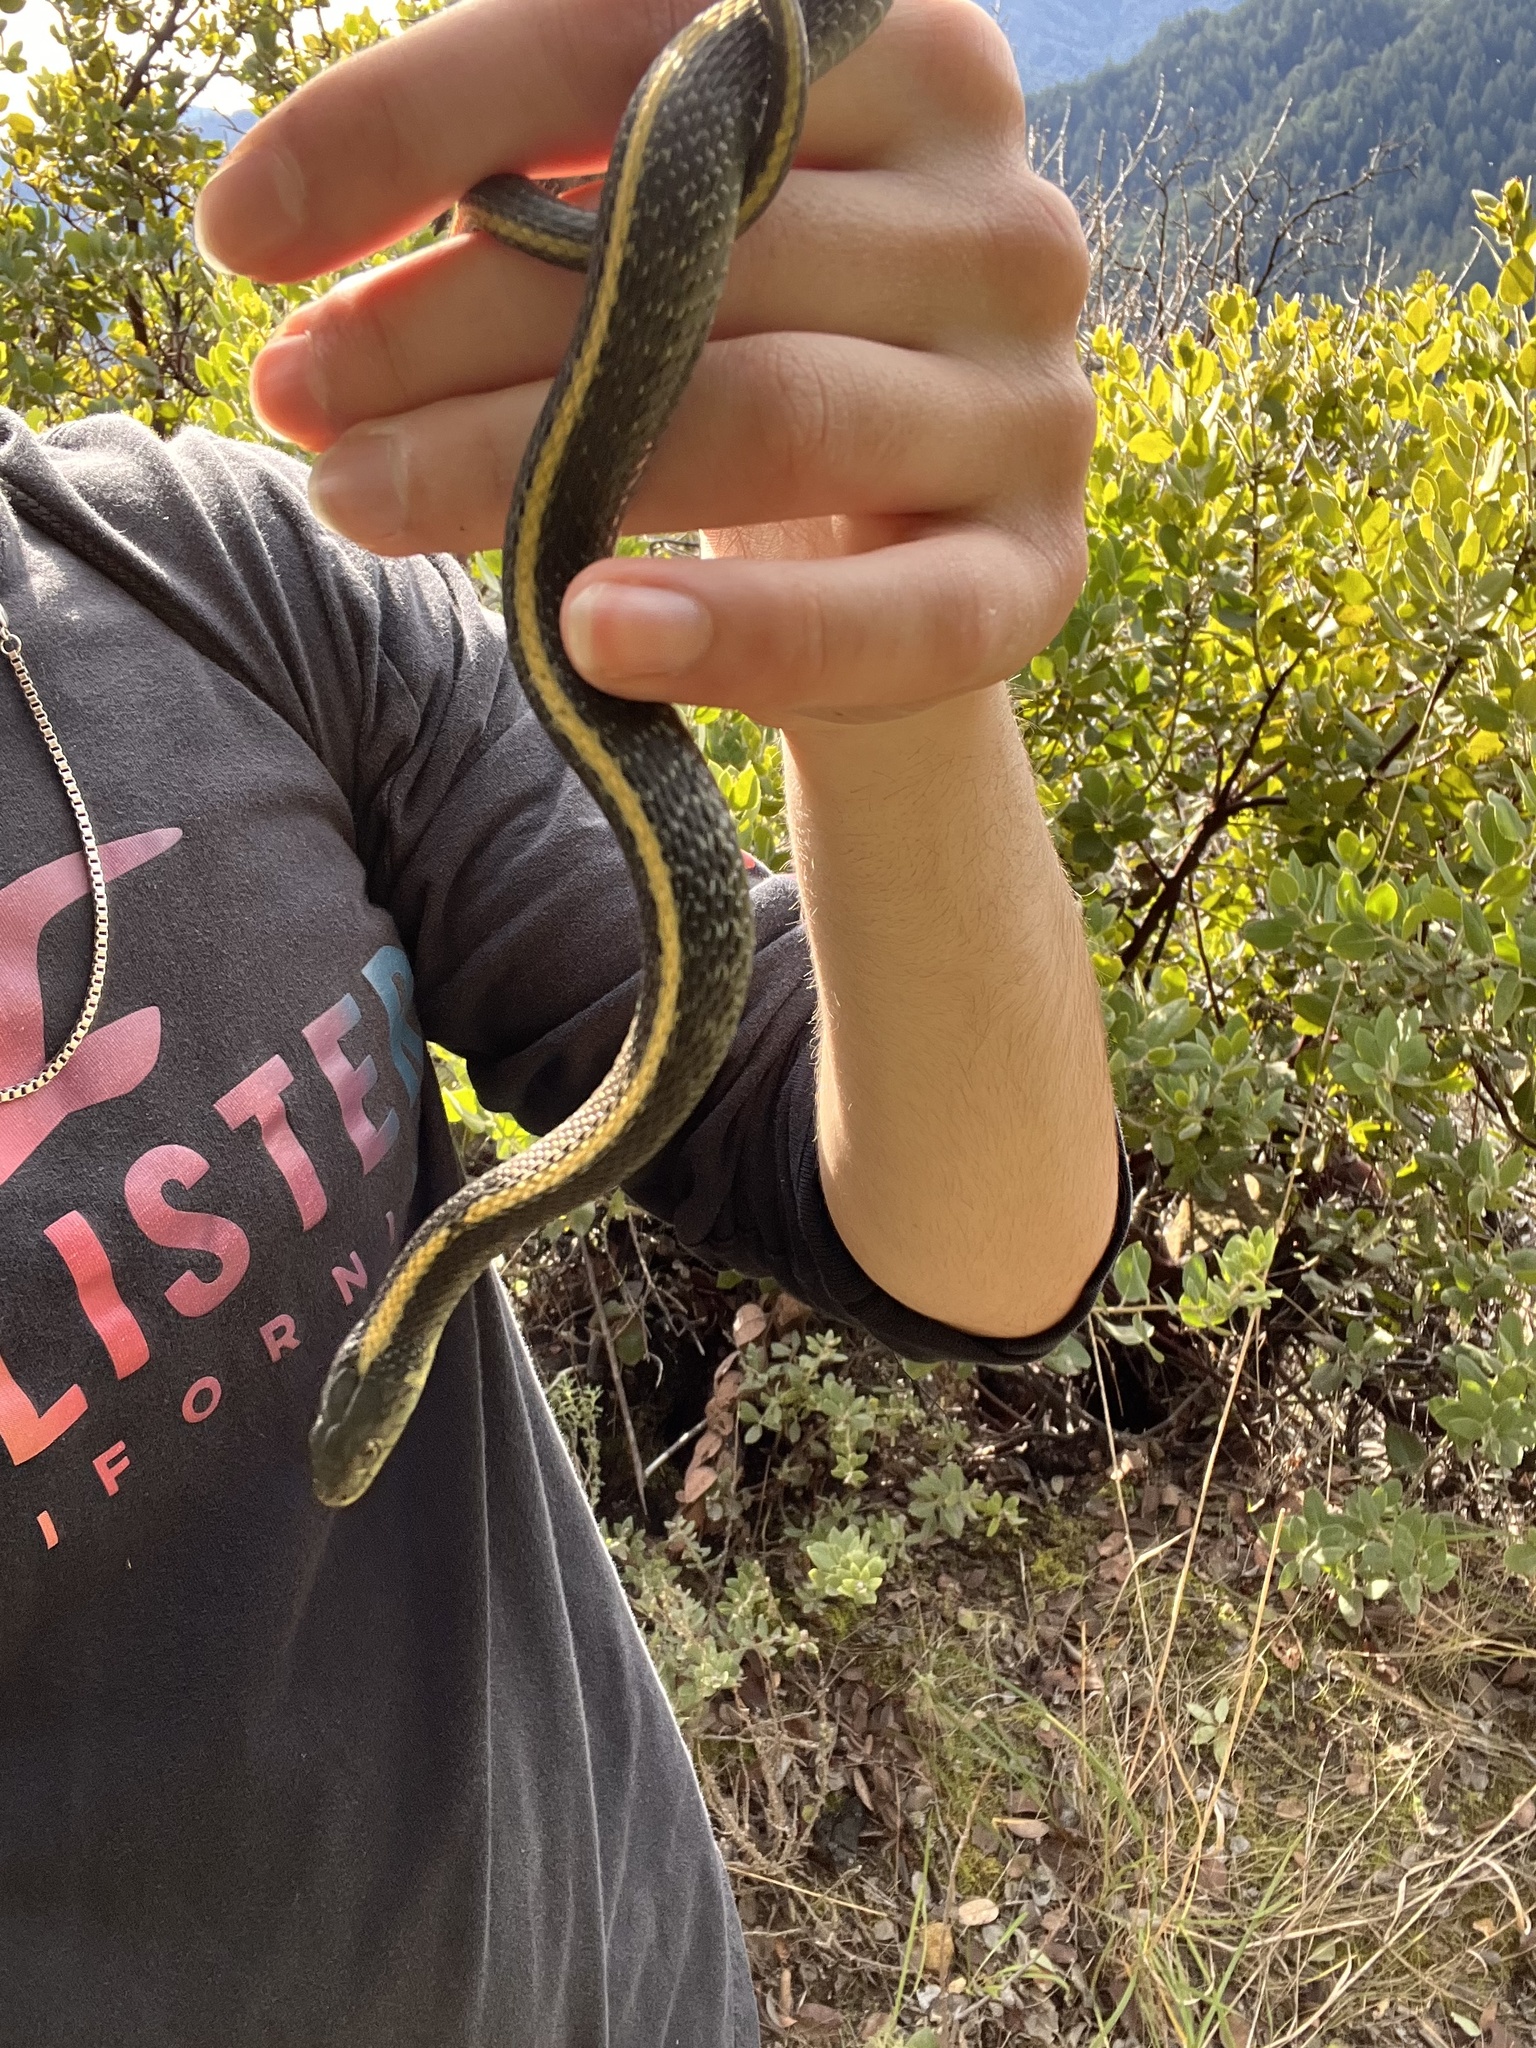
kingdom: Animalia
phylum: Chordata
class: Squamata
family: Colubridae
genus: Thamnophis
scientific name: Thamnophis atratus
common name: Pacific coast aquatic garter snake
